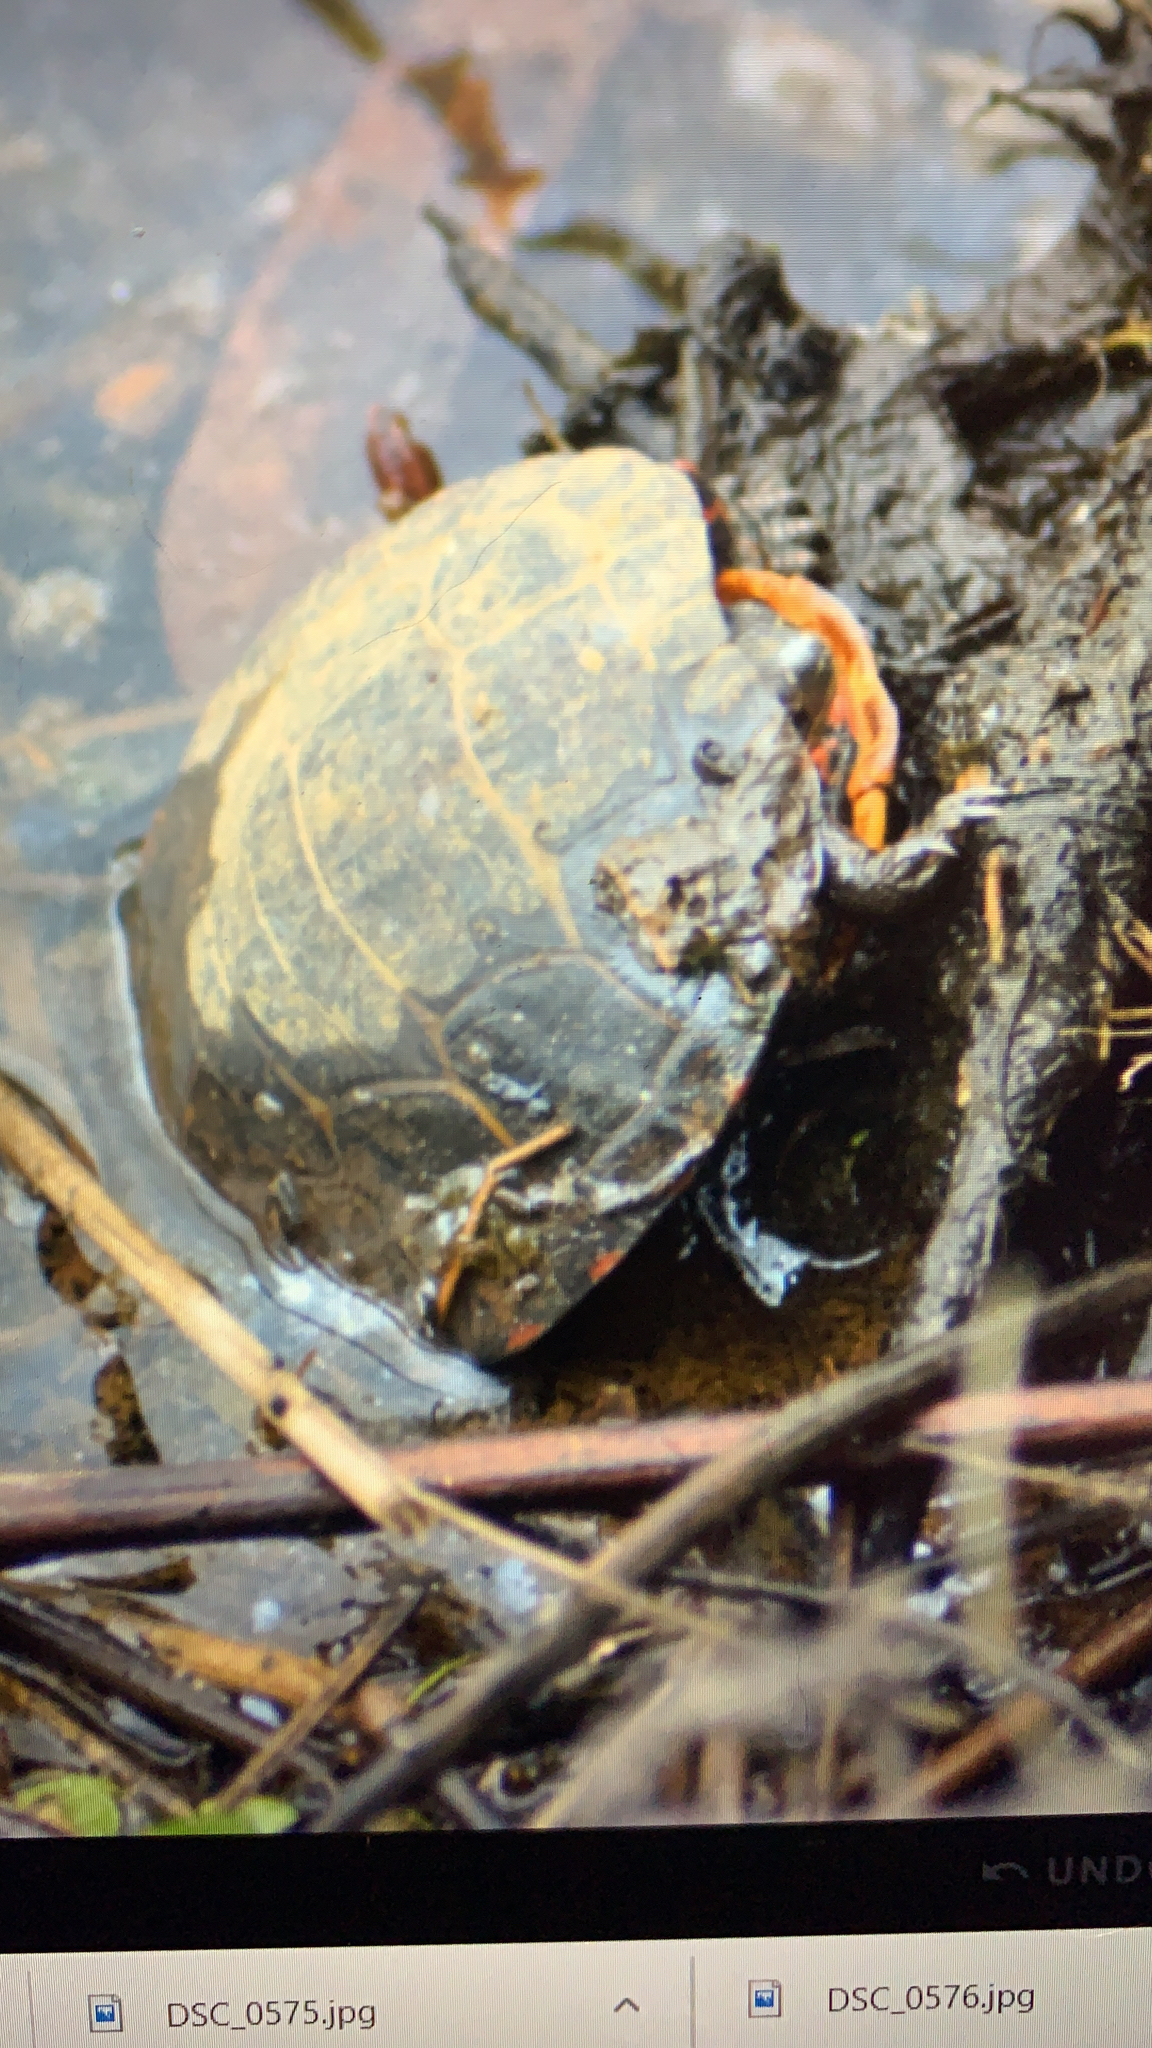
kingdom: Animalia
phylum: Chordata
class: Testudines
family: Emydidae
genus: Chrysemys
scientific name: Chrysemys picta
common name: Painted turtle
